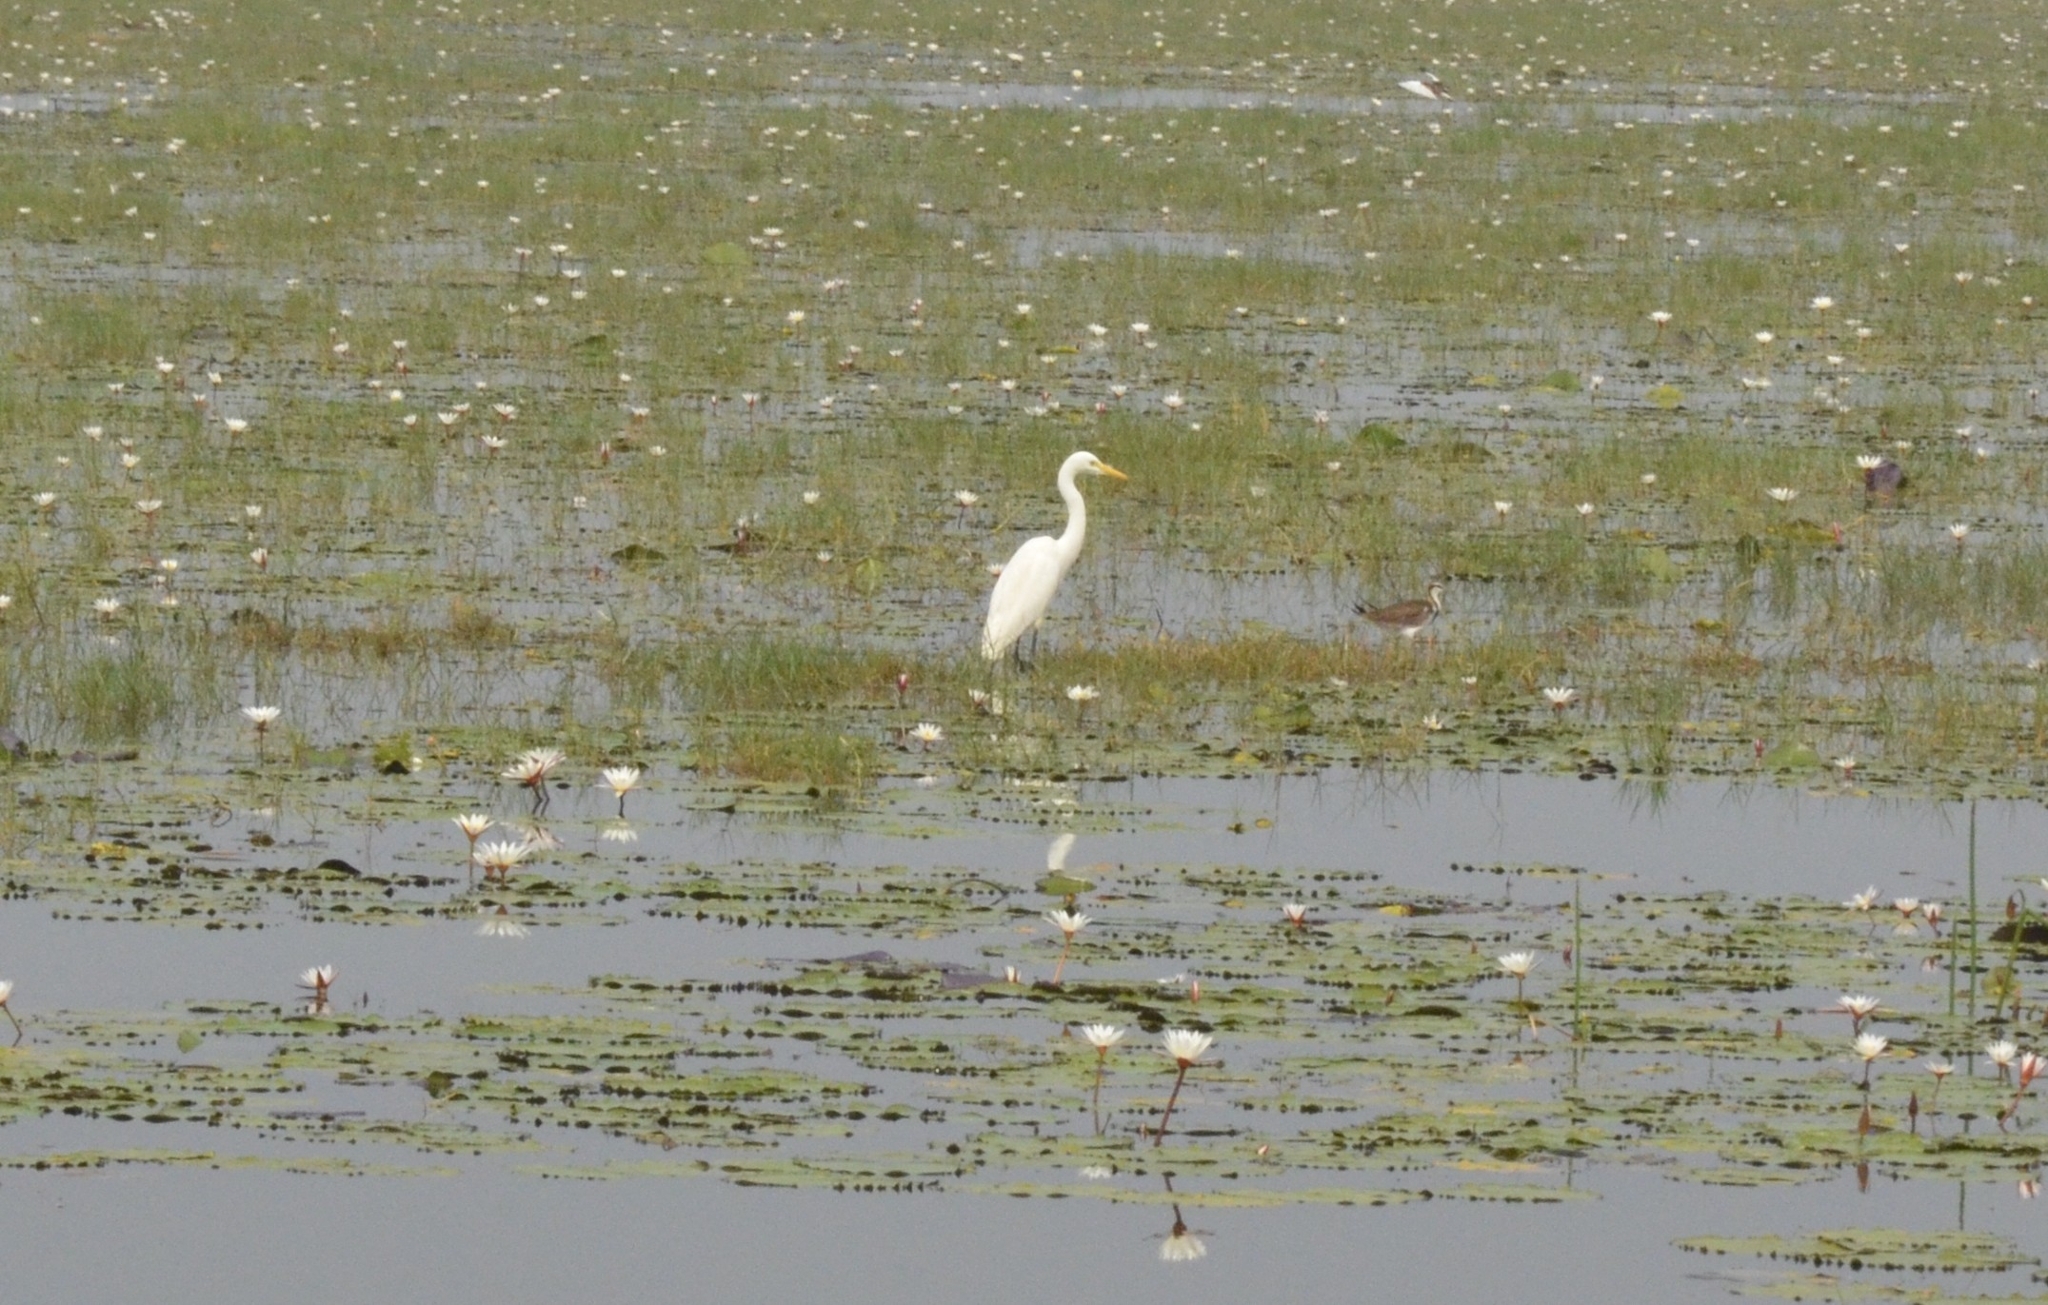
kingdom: Animalia
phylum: Chordata
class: Aves
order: Pelecaniformes
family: Ardeidae
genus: Egretta
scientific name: Egretta intermedia
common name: Intermediate egret
